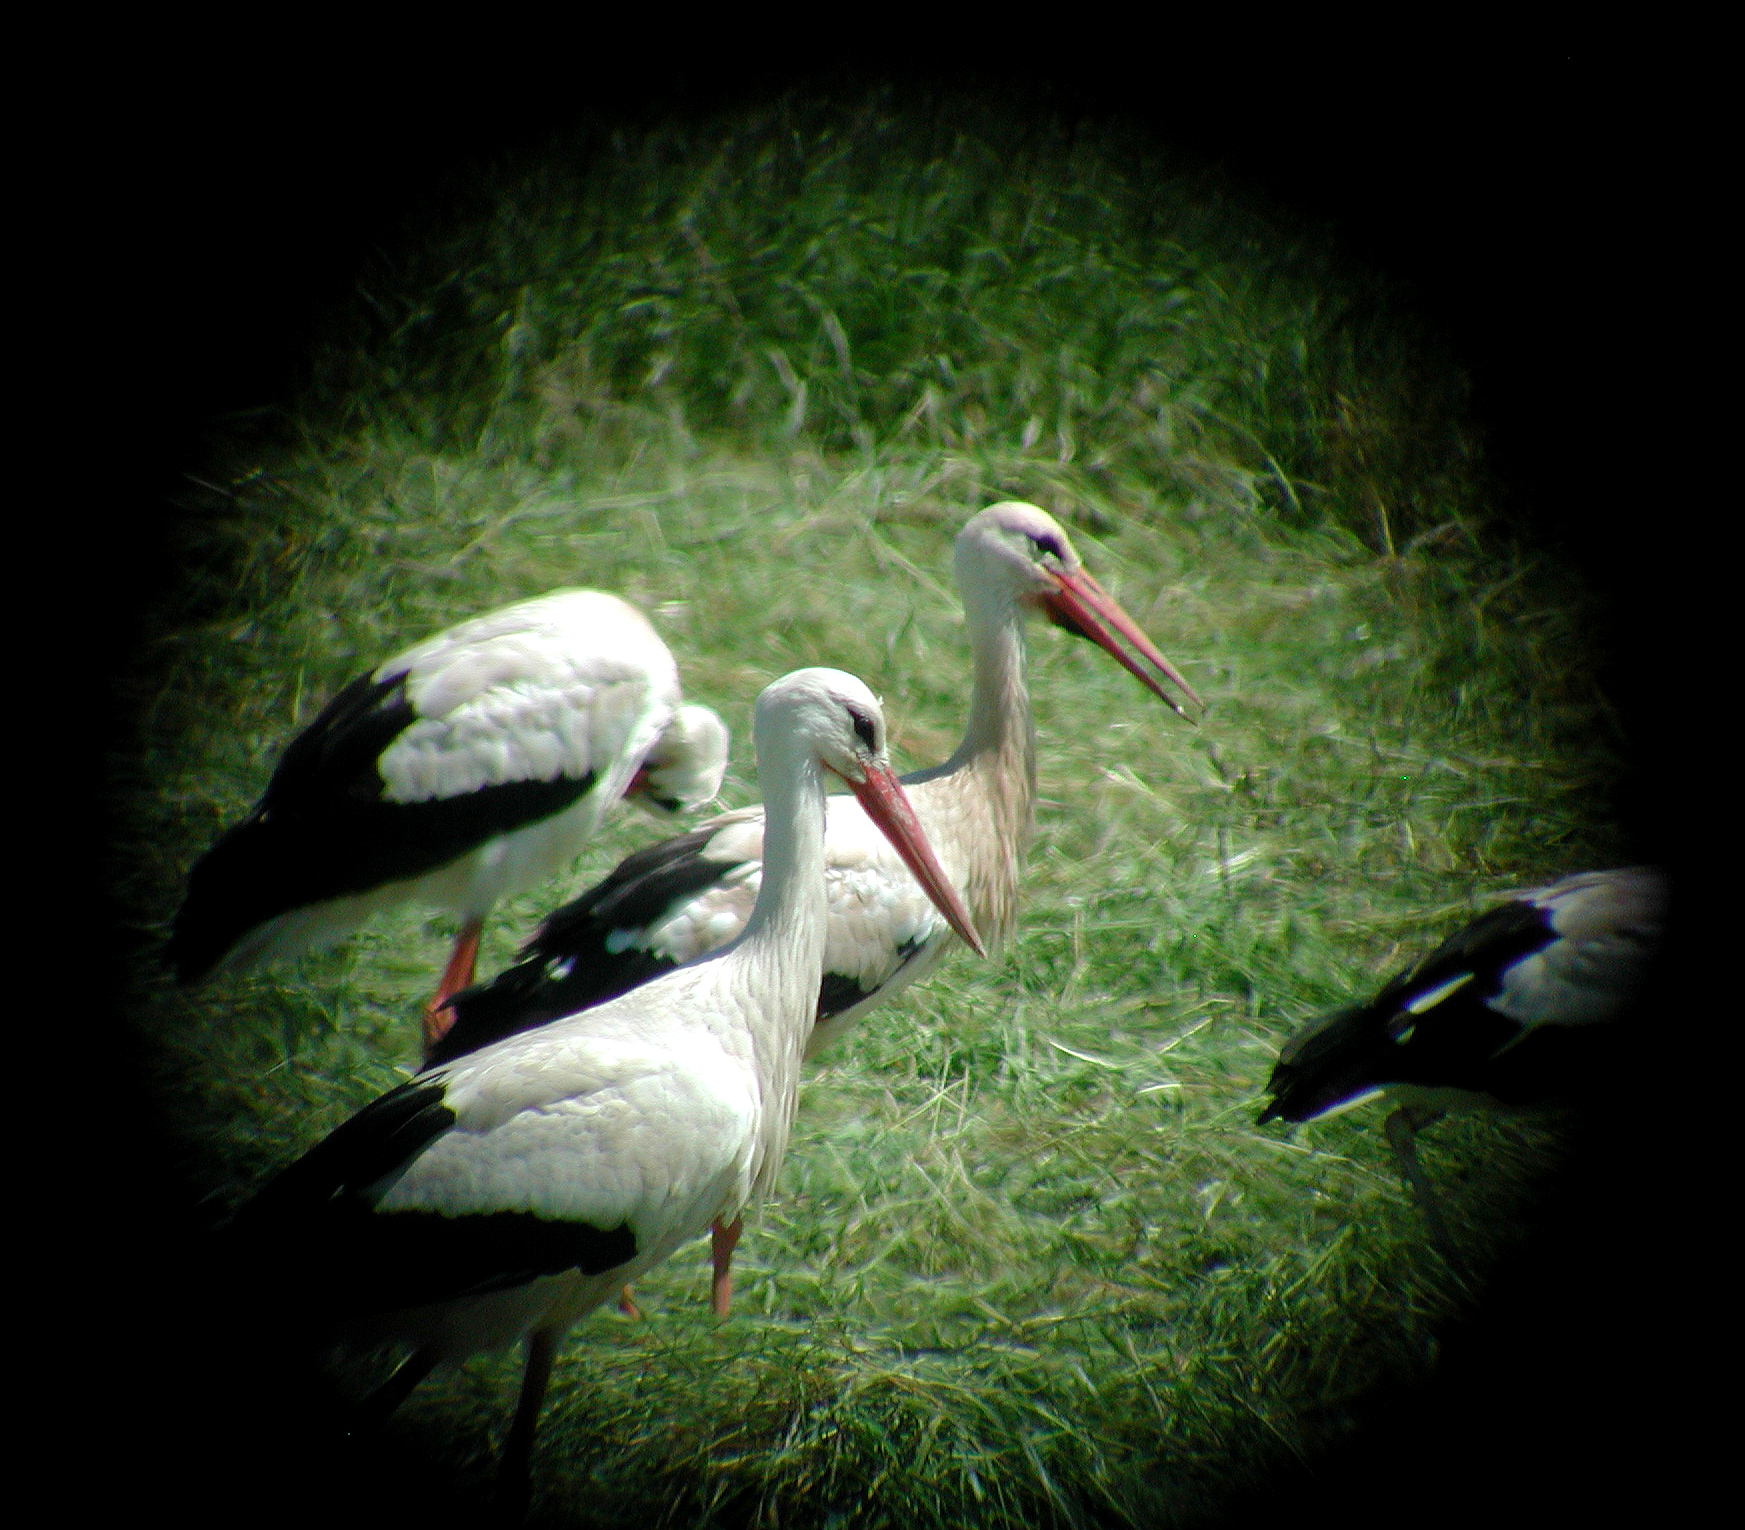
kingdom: Animalia
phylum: Chordata
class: Aves
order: Ciconiiformes
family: Ciconiidae
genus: Ciconia
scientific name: Ciconia ciconia
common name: White stork
